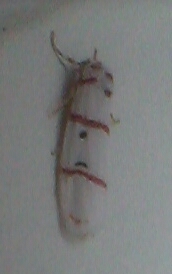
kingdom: Animalia
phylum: Arthropoda
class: Insecta
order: Lepidoptera
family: Erebidae
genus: Cyana
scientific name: Cyana pretoriae
